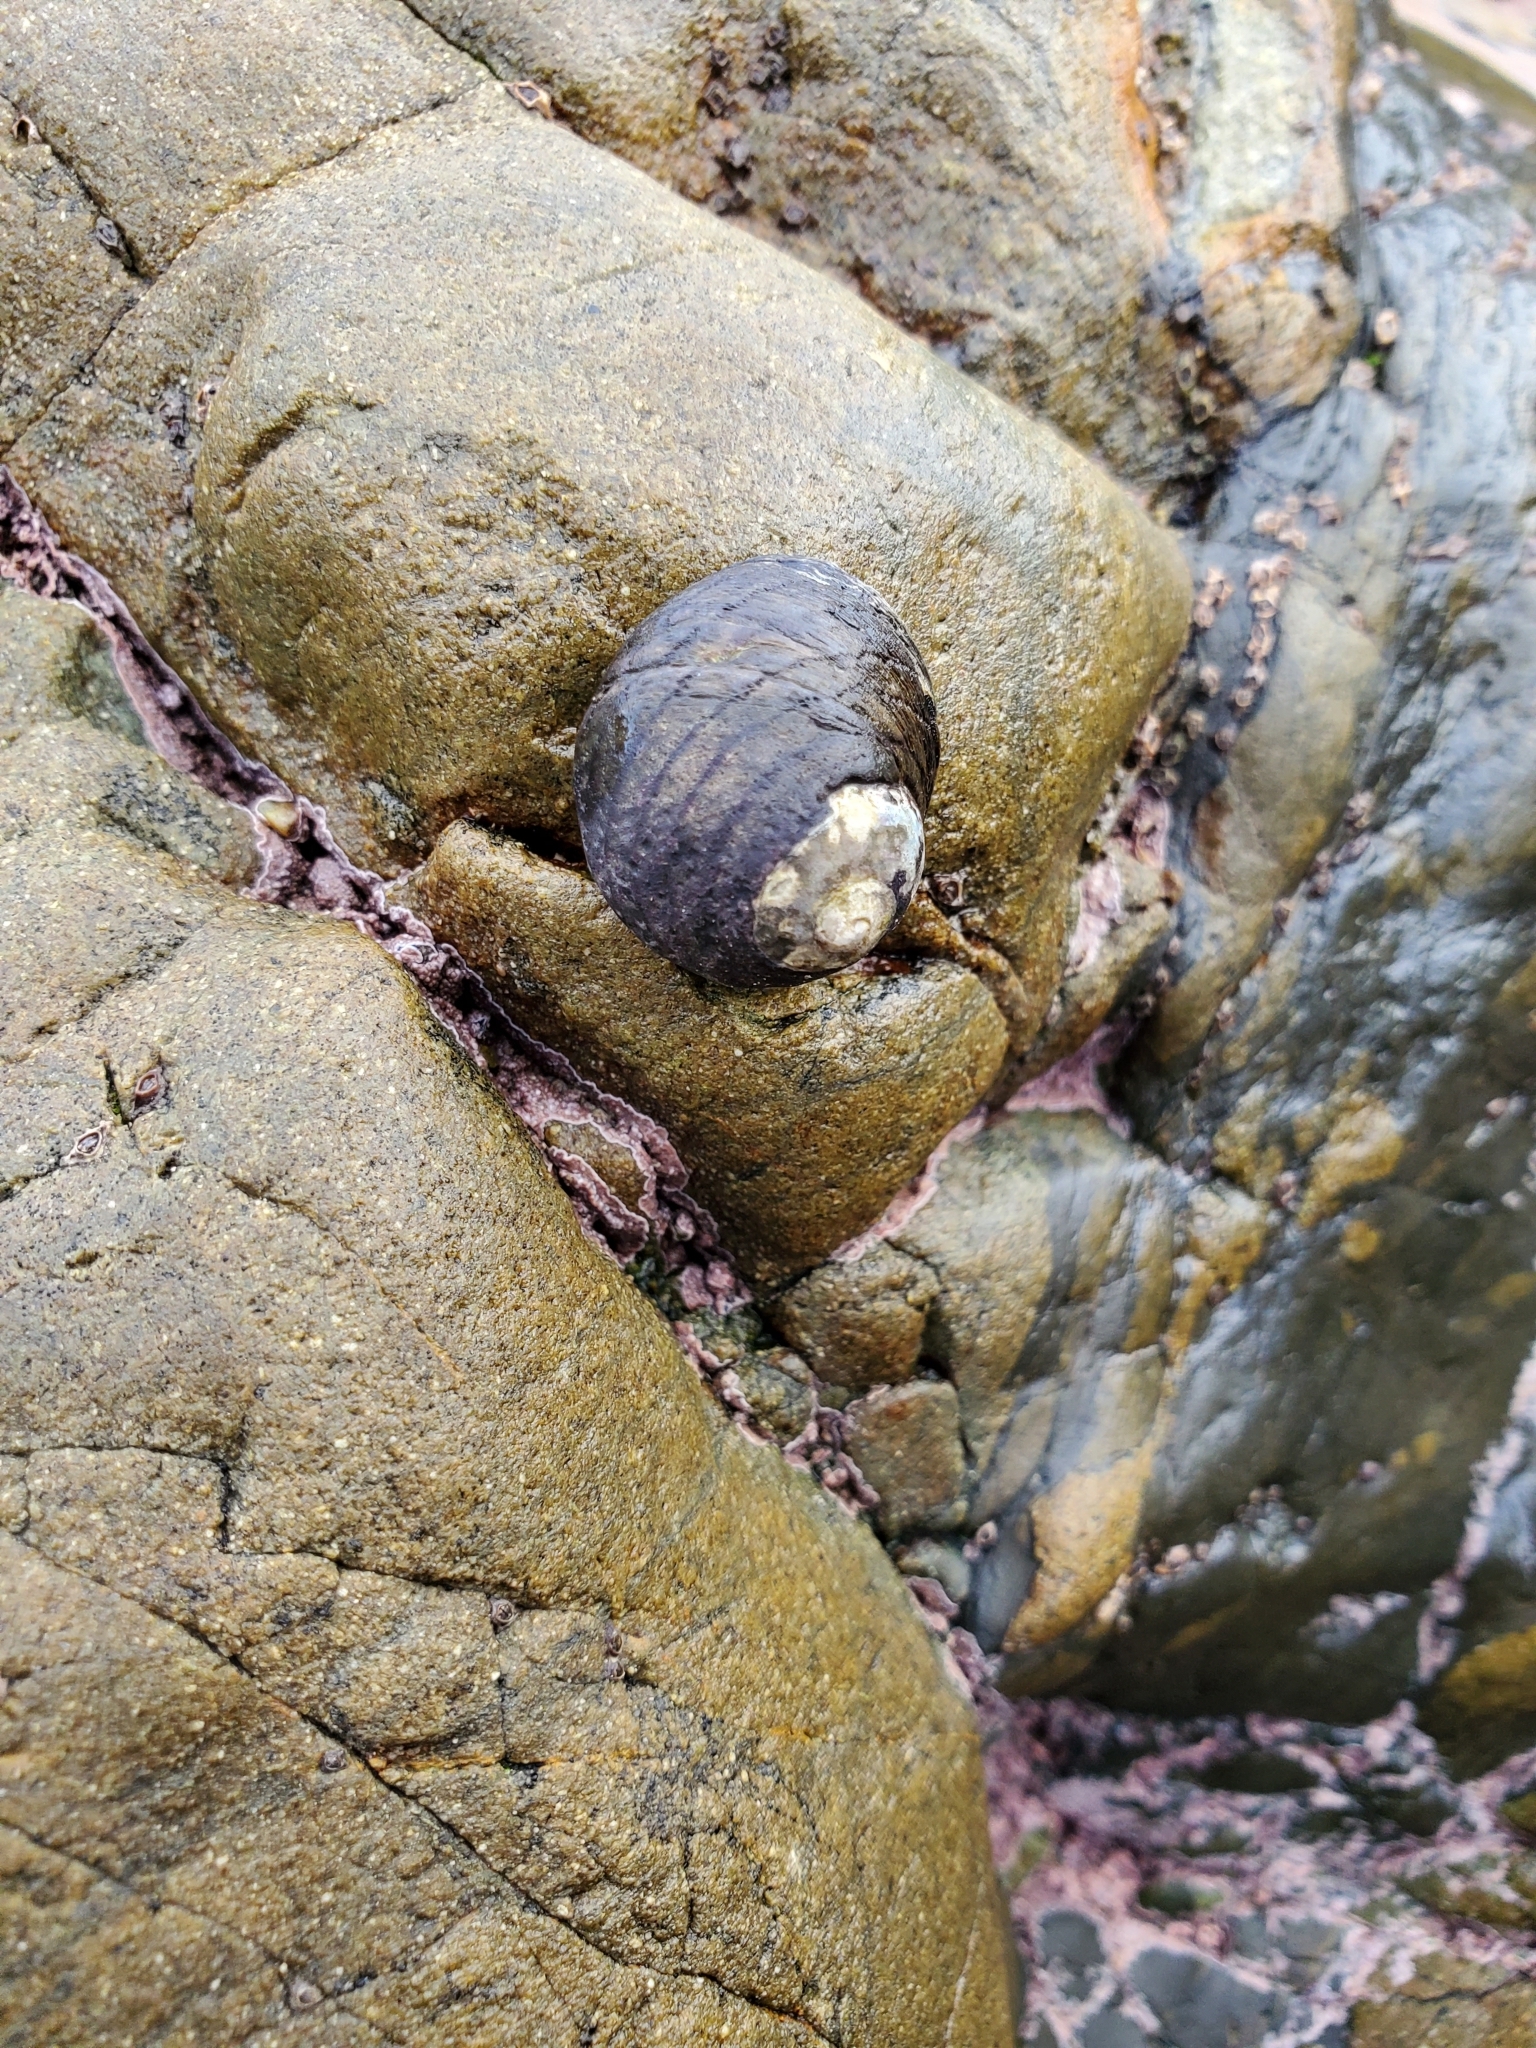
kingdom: Animalia
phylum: Mollusca
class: Gastropoda
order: Trochida
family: Trochidae
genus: Diloma
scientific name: Diloma aethiops
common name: Scorched monodont
